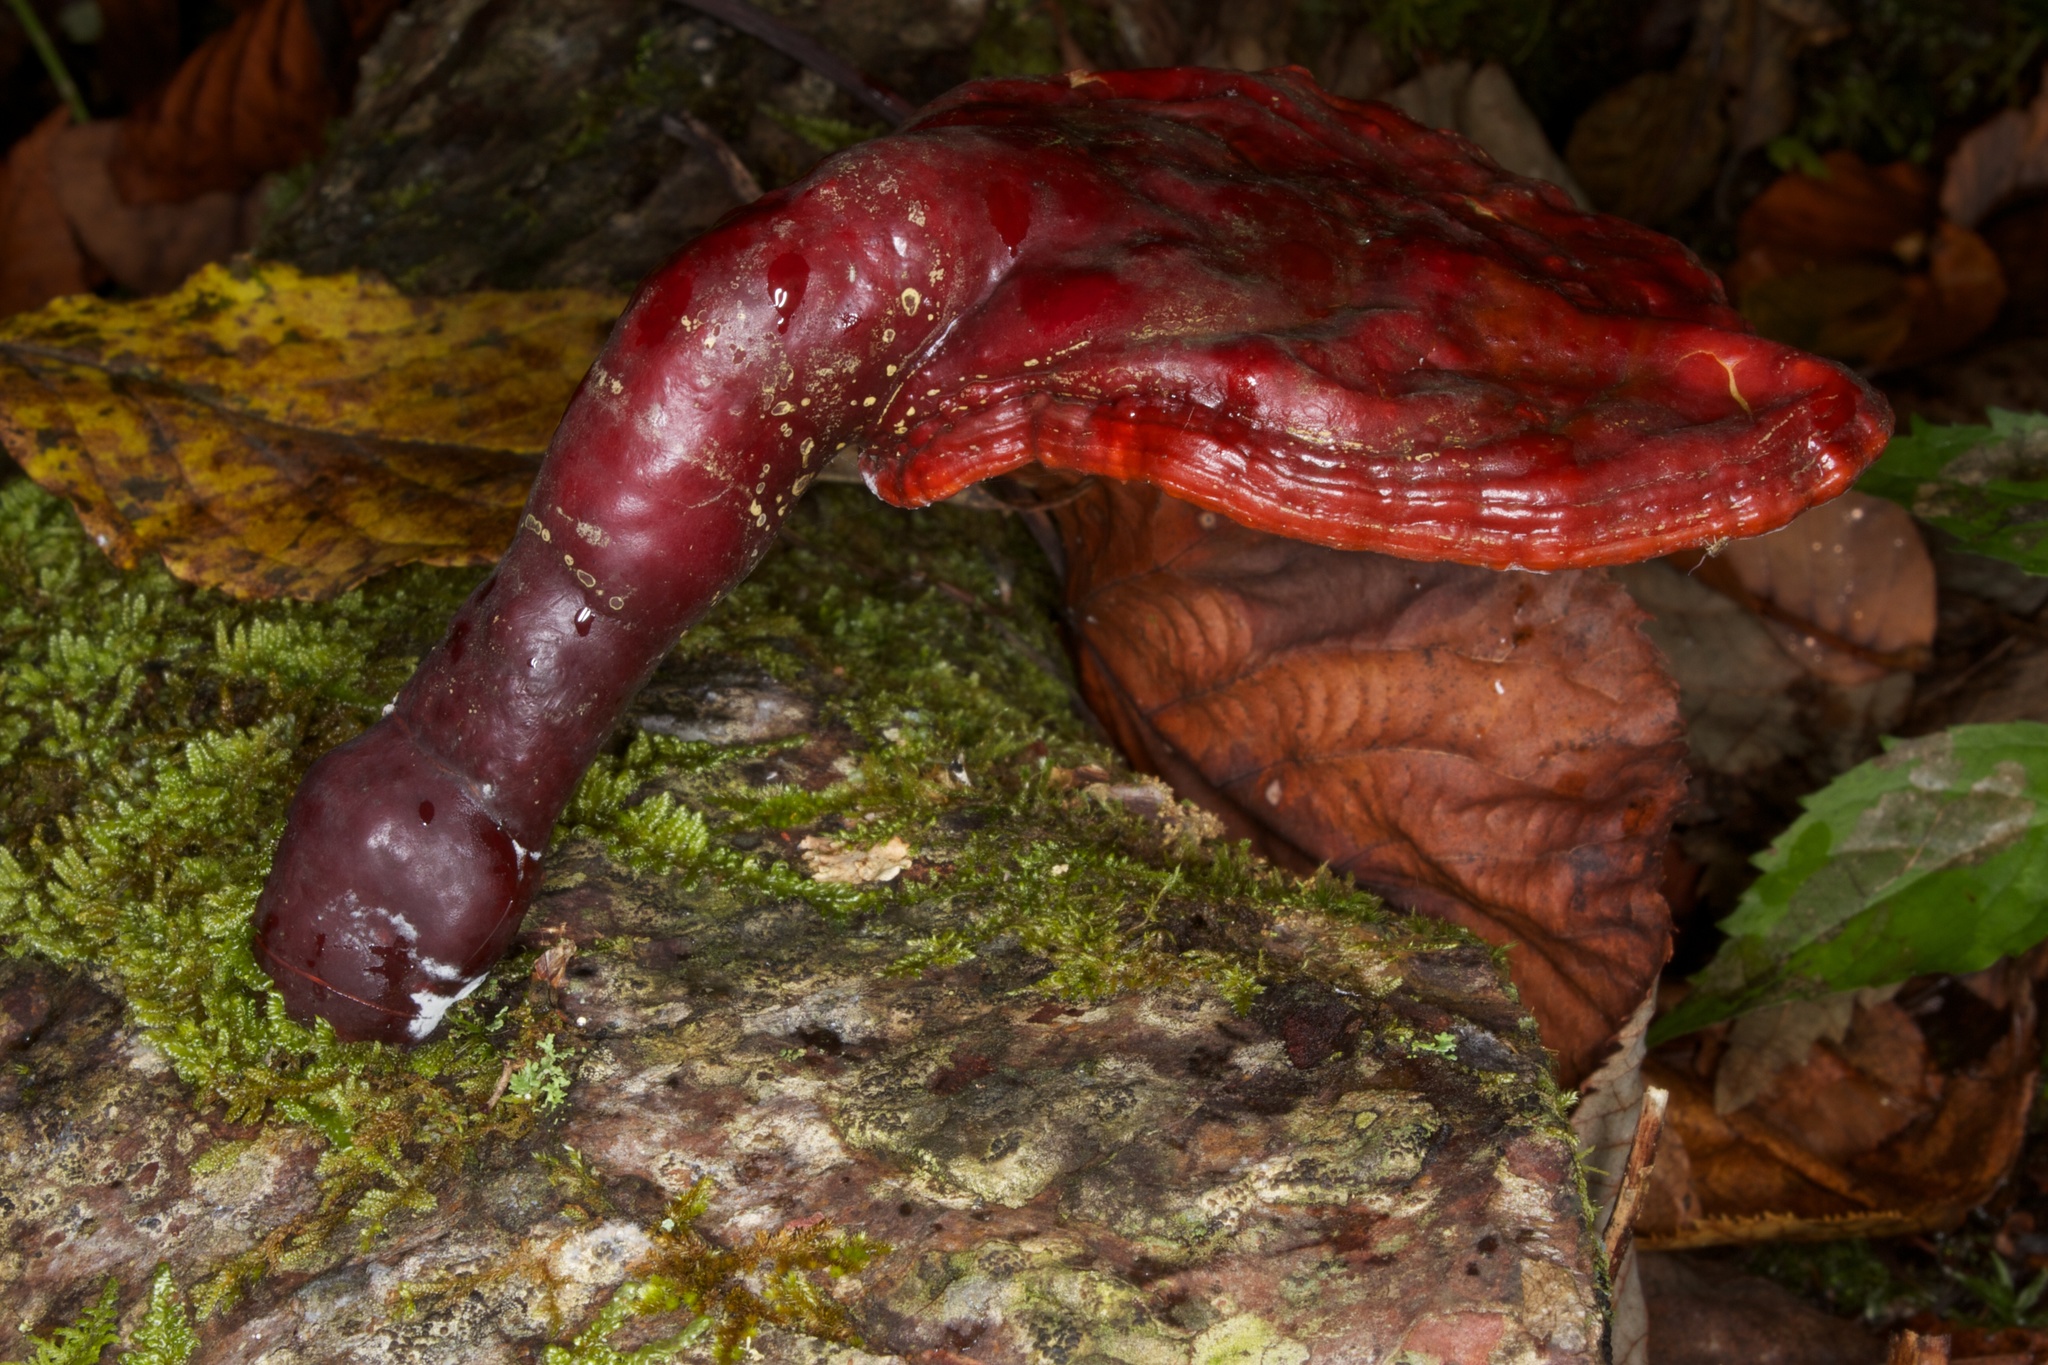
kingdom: Fungi
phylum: Basidiomycota
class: Agaricomycetes
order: Polyporales
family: Polyporaceae
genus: Ganoderma
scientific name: Ganoderma tsugae
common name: Hemlock varnish shelf
